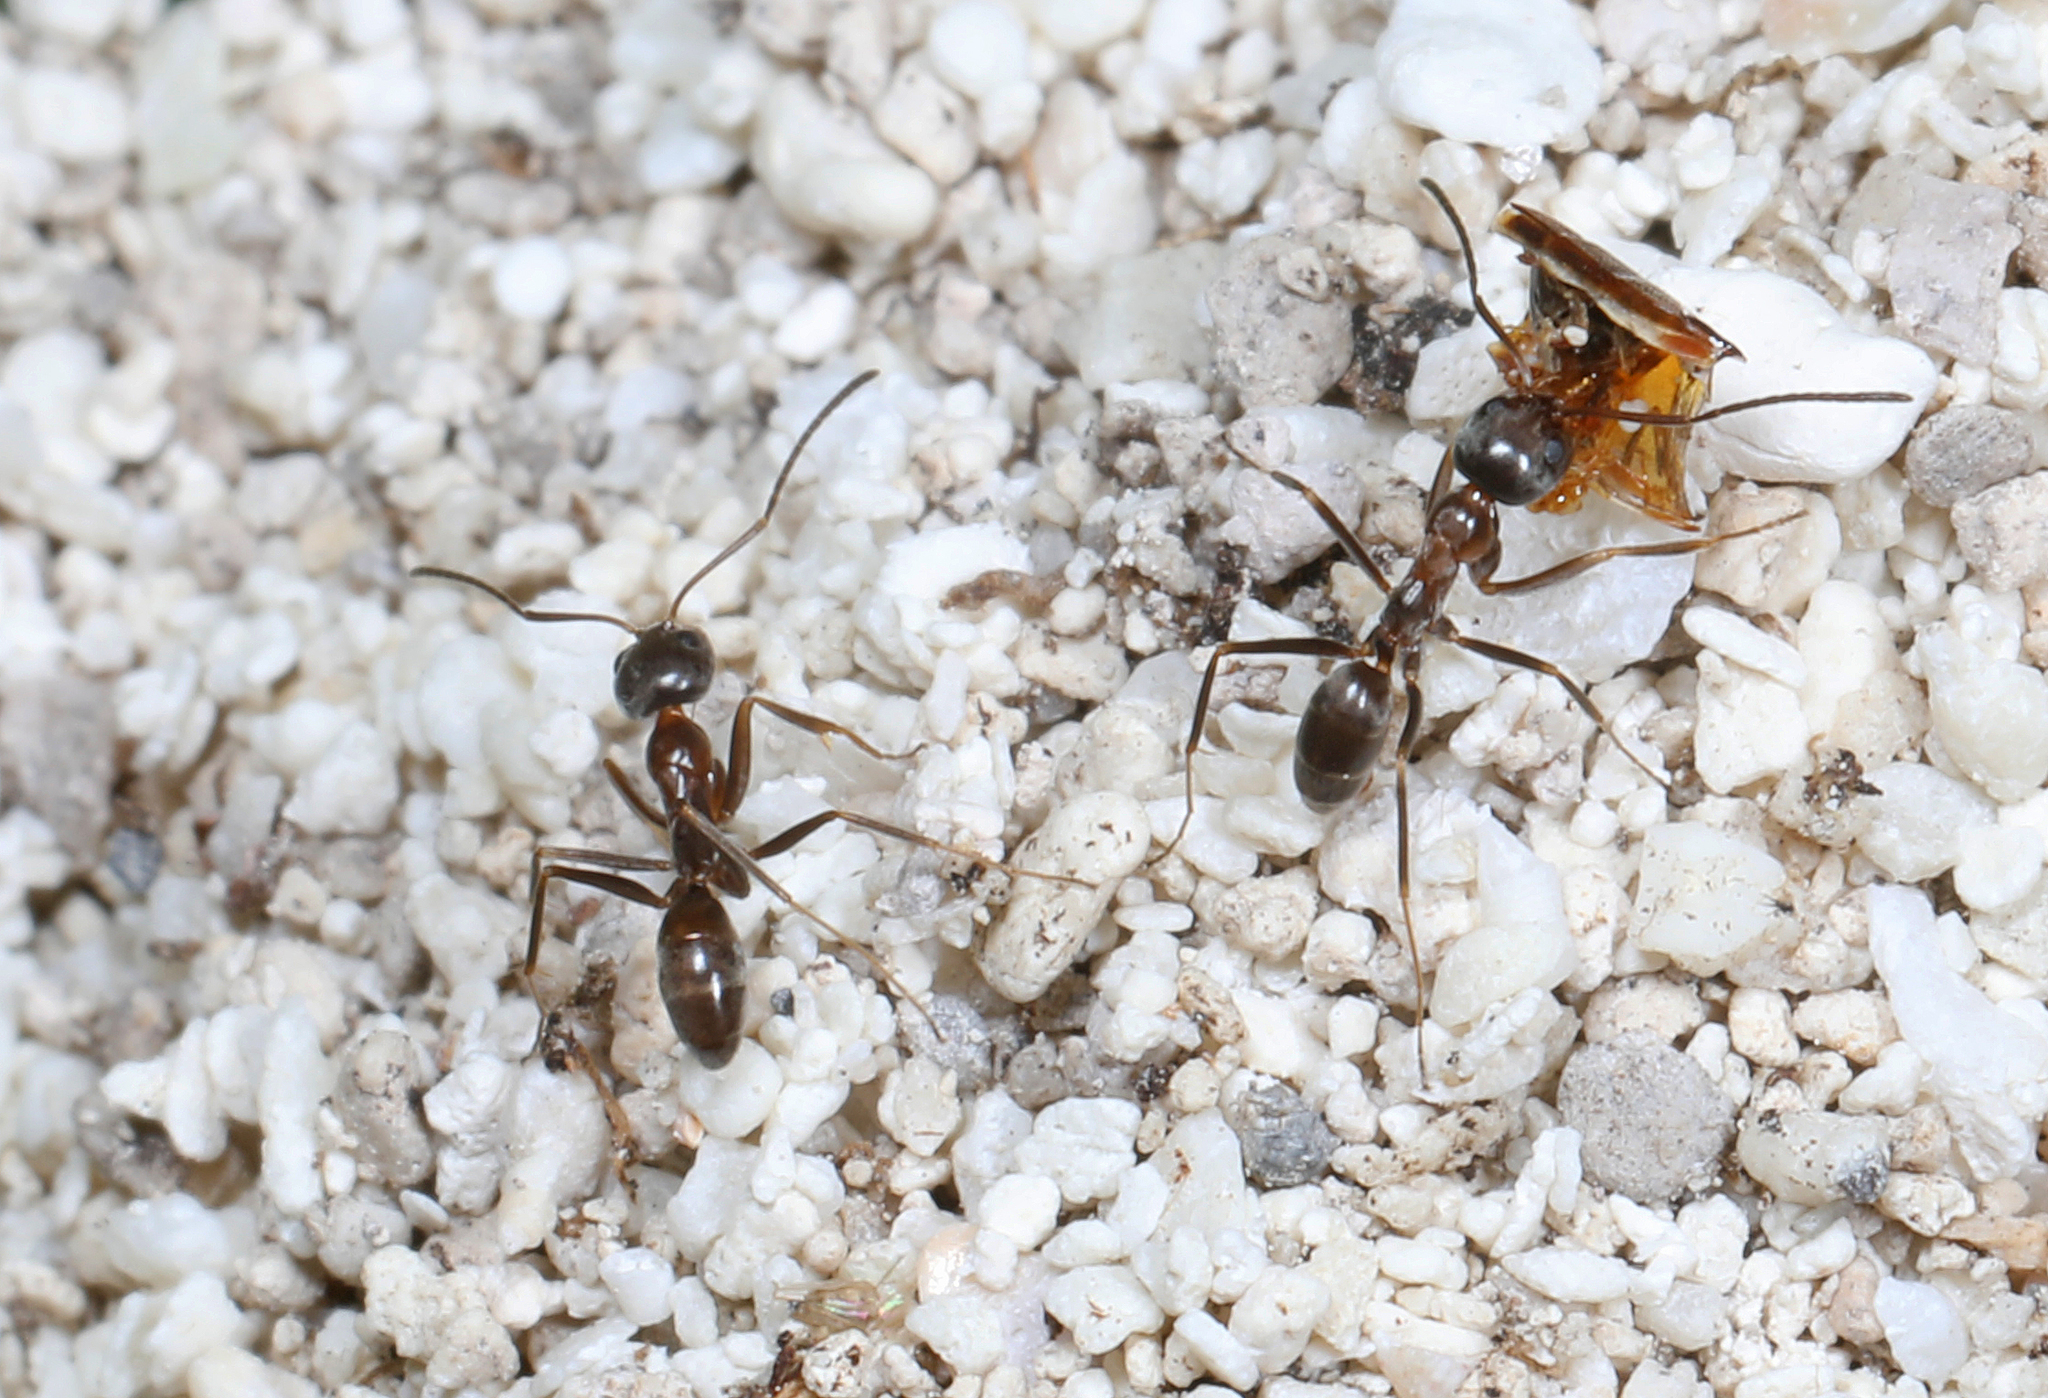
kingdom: Animalia
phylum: Arthropoda
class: Insecta
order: Hymenoptera
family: Formicidae
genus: Dorymyrmex
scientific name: Dorymyrmex bureni
